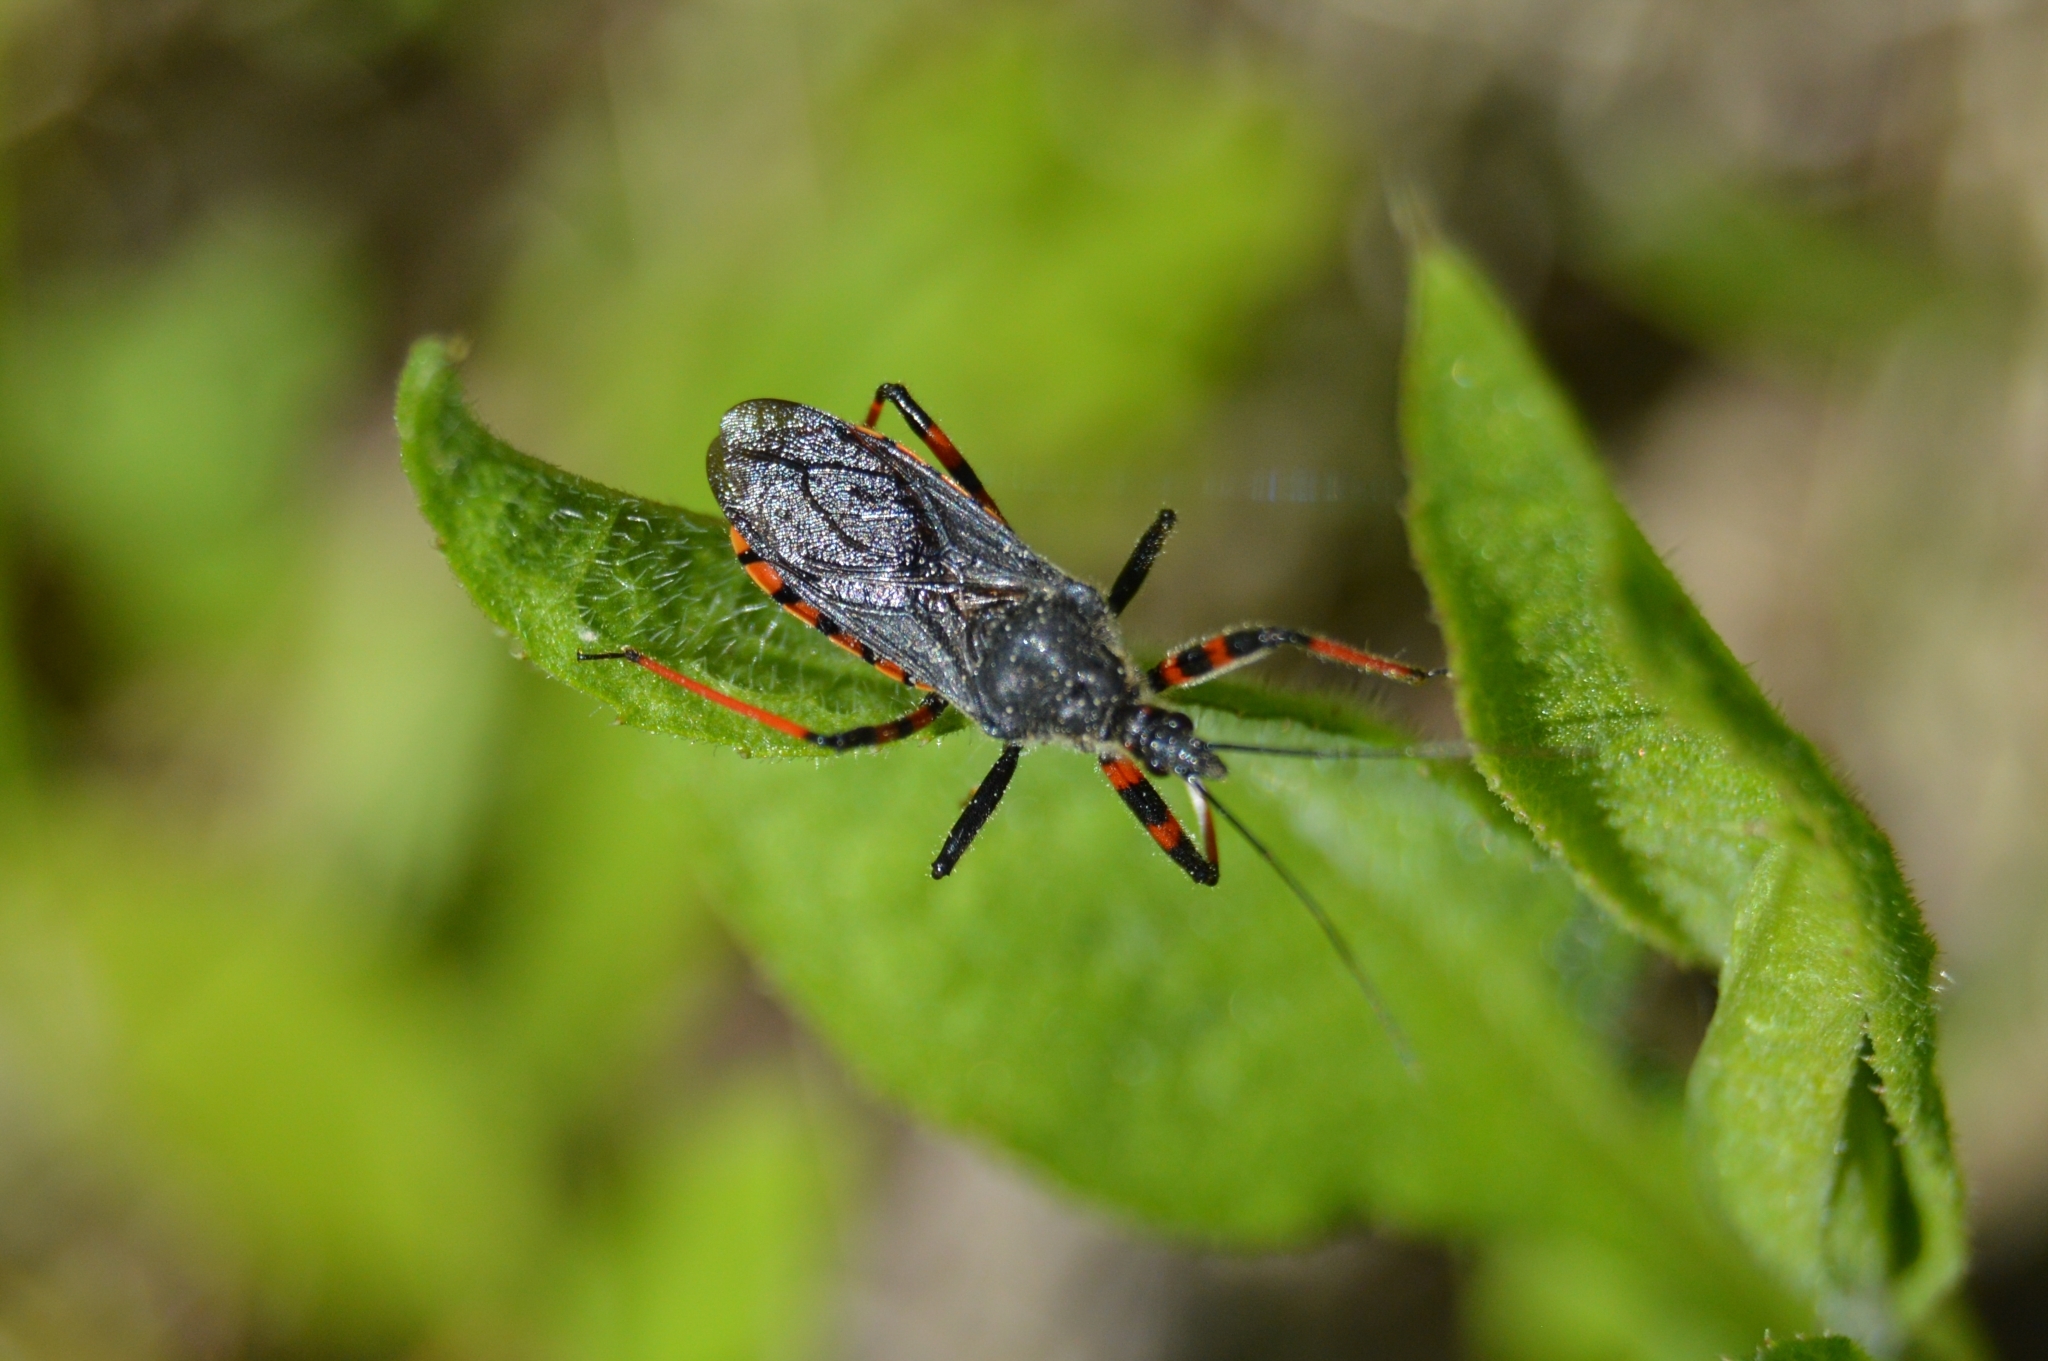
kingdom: Animalia
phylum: Arthropoda
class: Insecta
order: Hemiptera
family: Reduviidae
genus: Rhynocoris
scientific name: Rhynocoris annulatus
